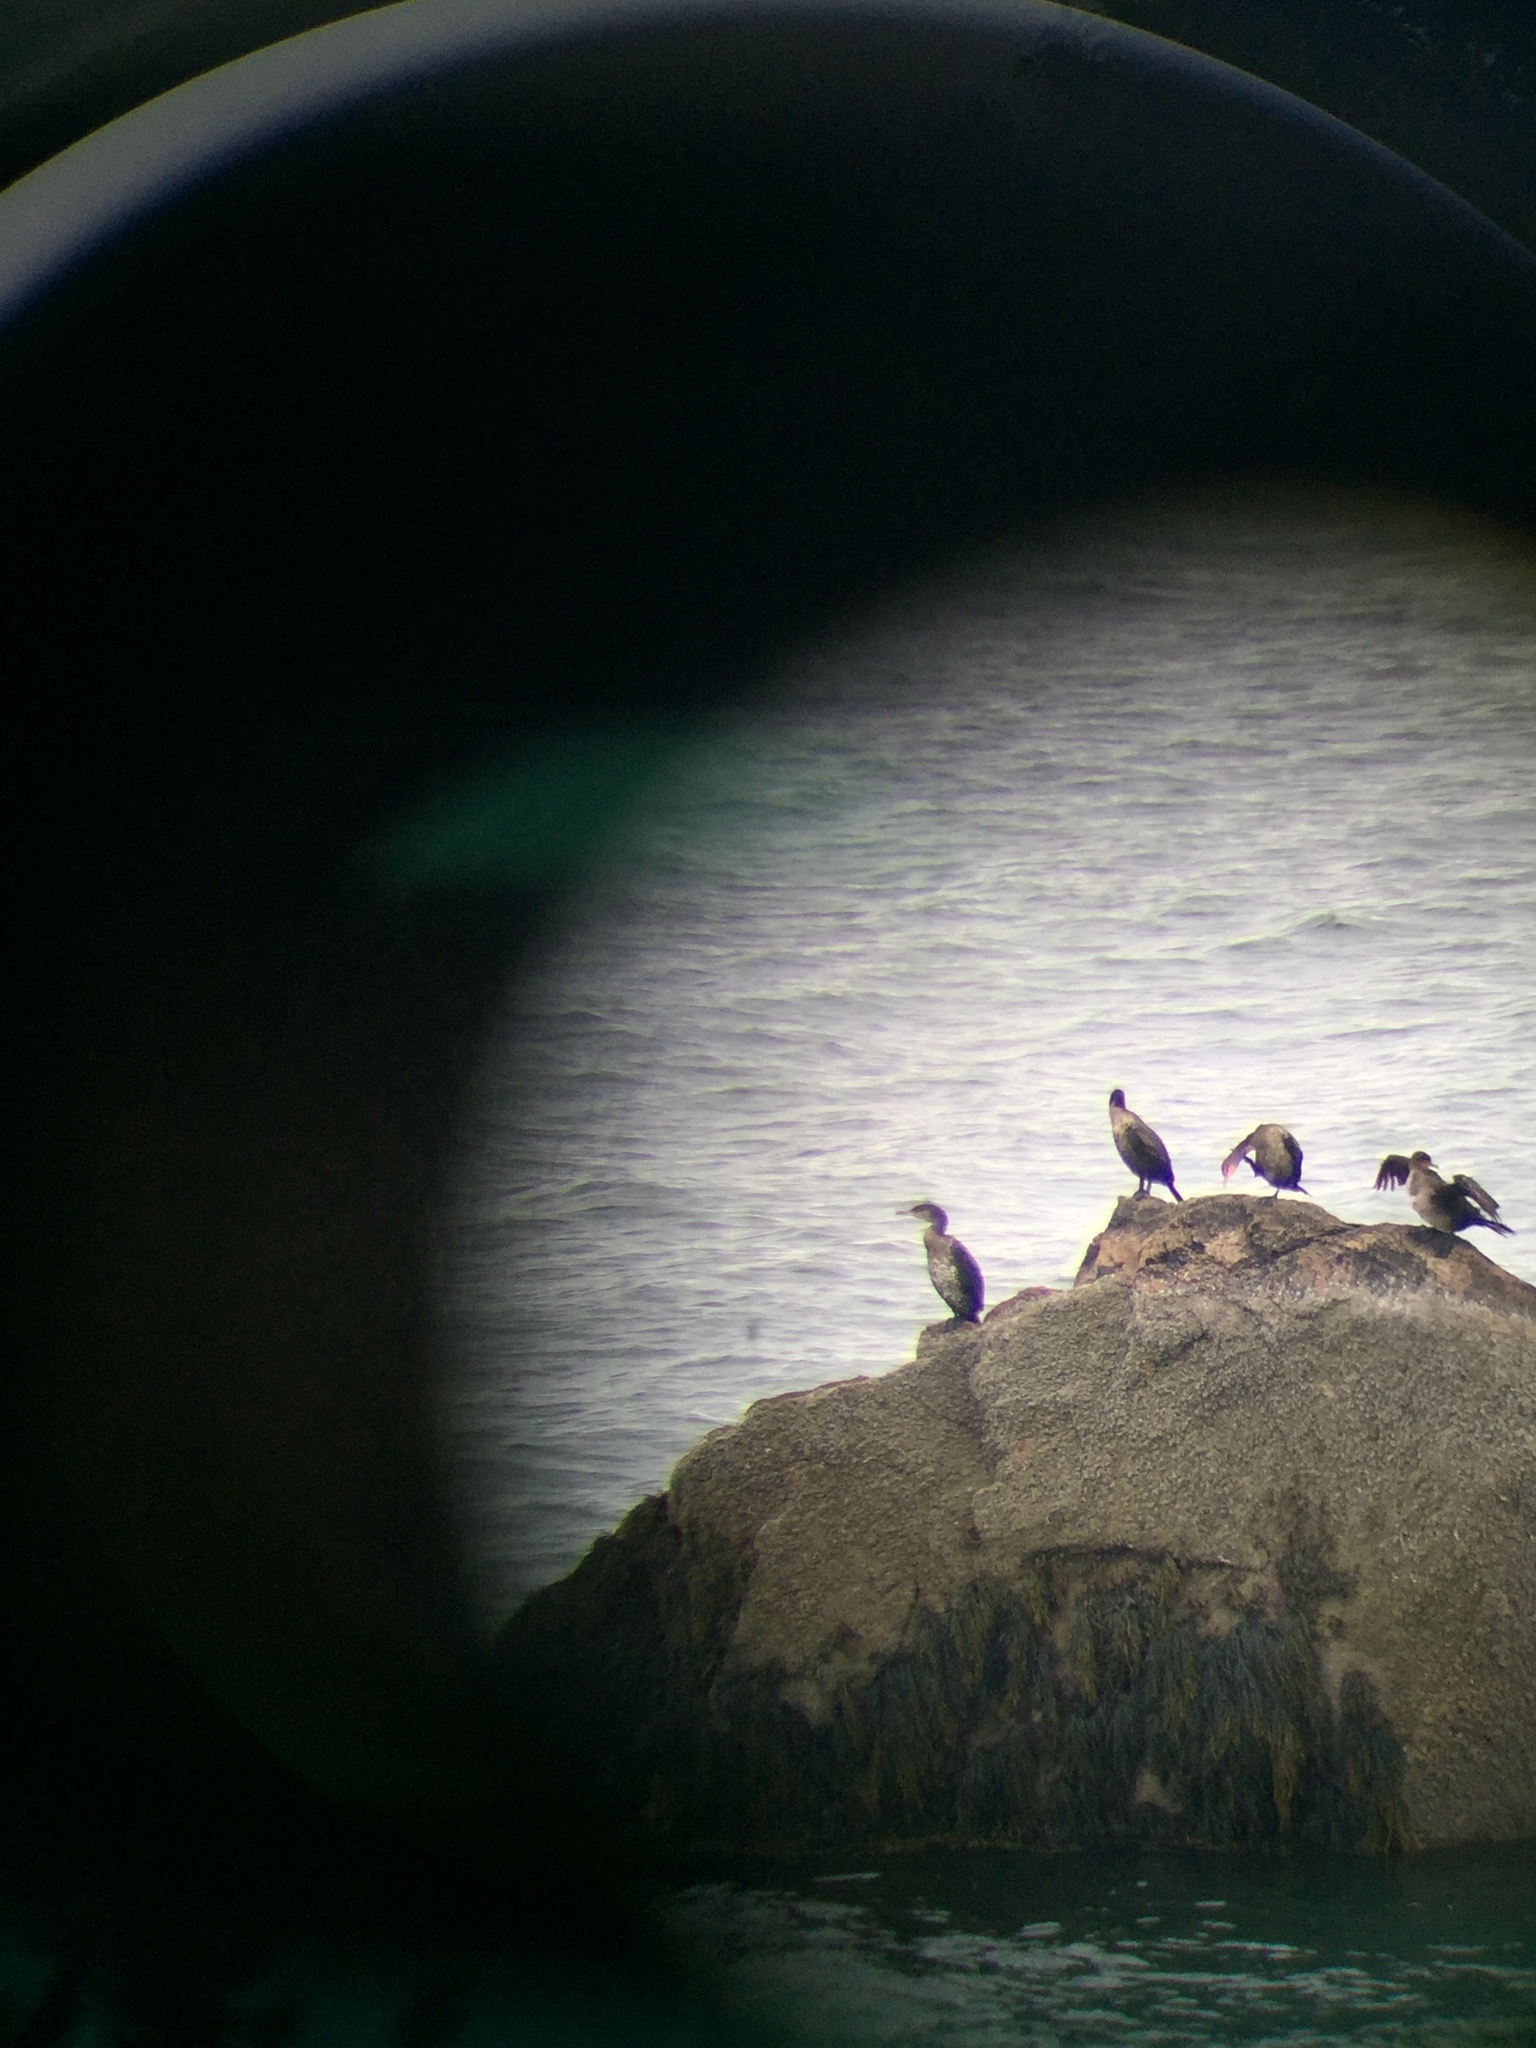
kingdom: Animalia
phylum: Chordata
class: Aves
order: Suliformes
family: Phalacrocoracidae
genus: Phalacrocorax
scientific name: Phalacrocorax carbo
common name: Great cormorant
